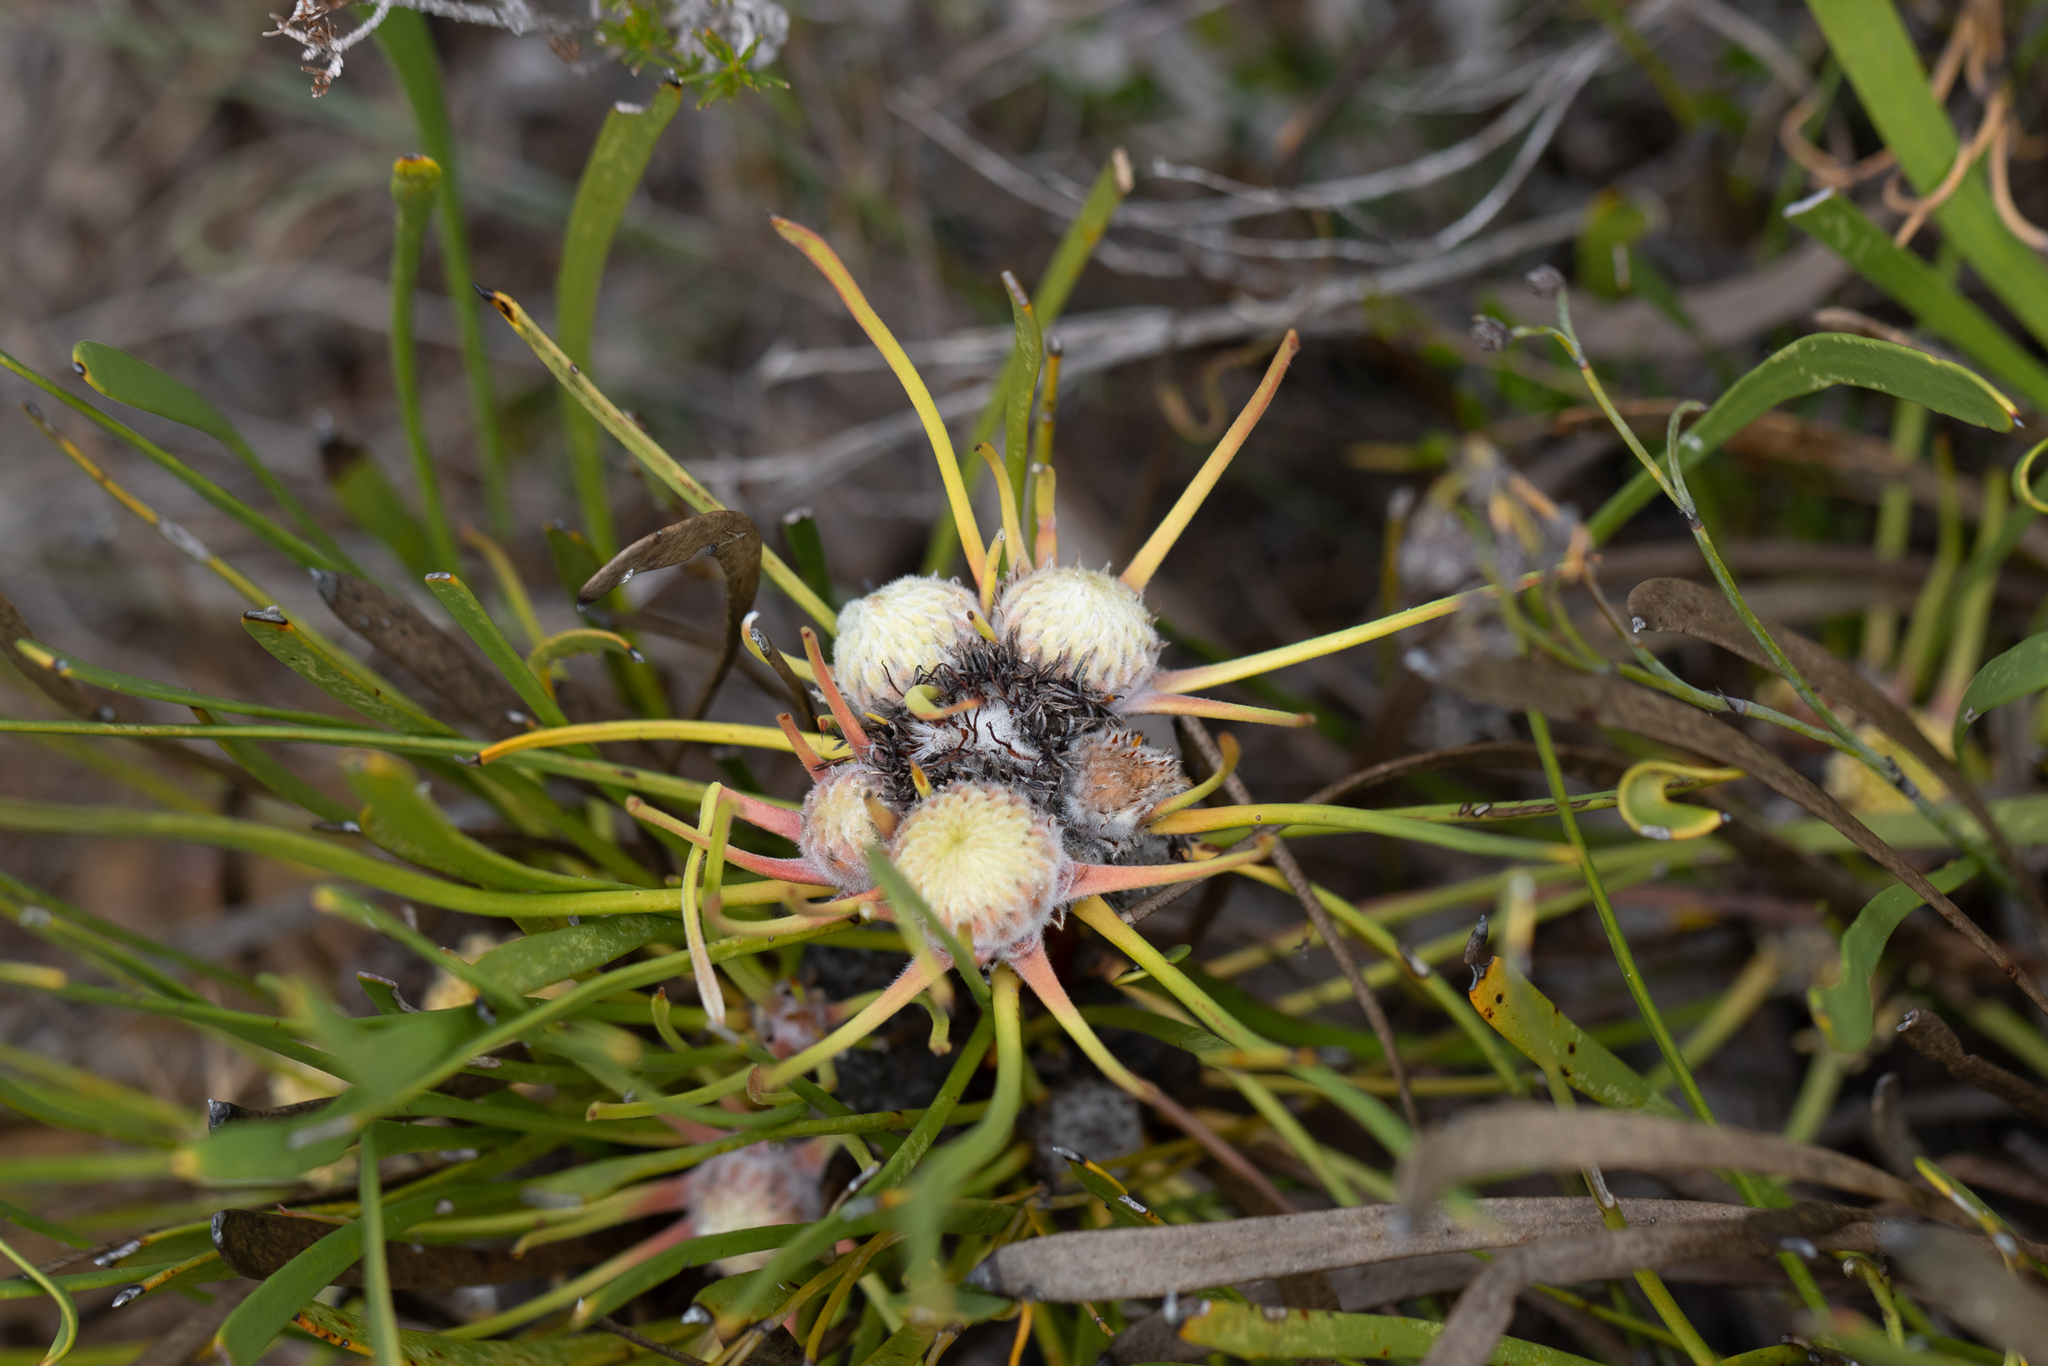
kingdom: Plantae
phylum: Tracheophyta
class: Magnoliopsida
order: Proteales
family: Proteaceae
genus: Isopogon
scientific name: Isopogon polycephalus
